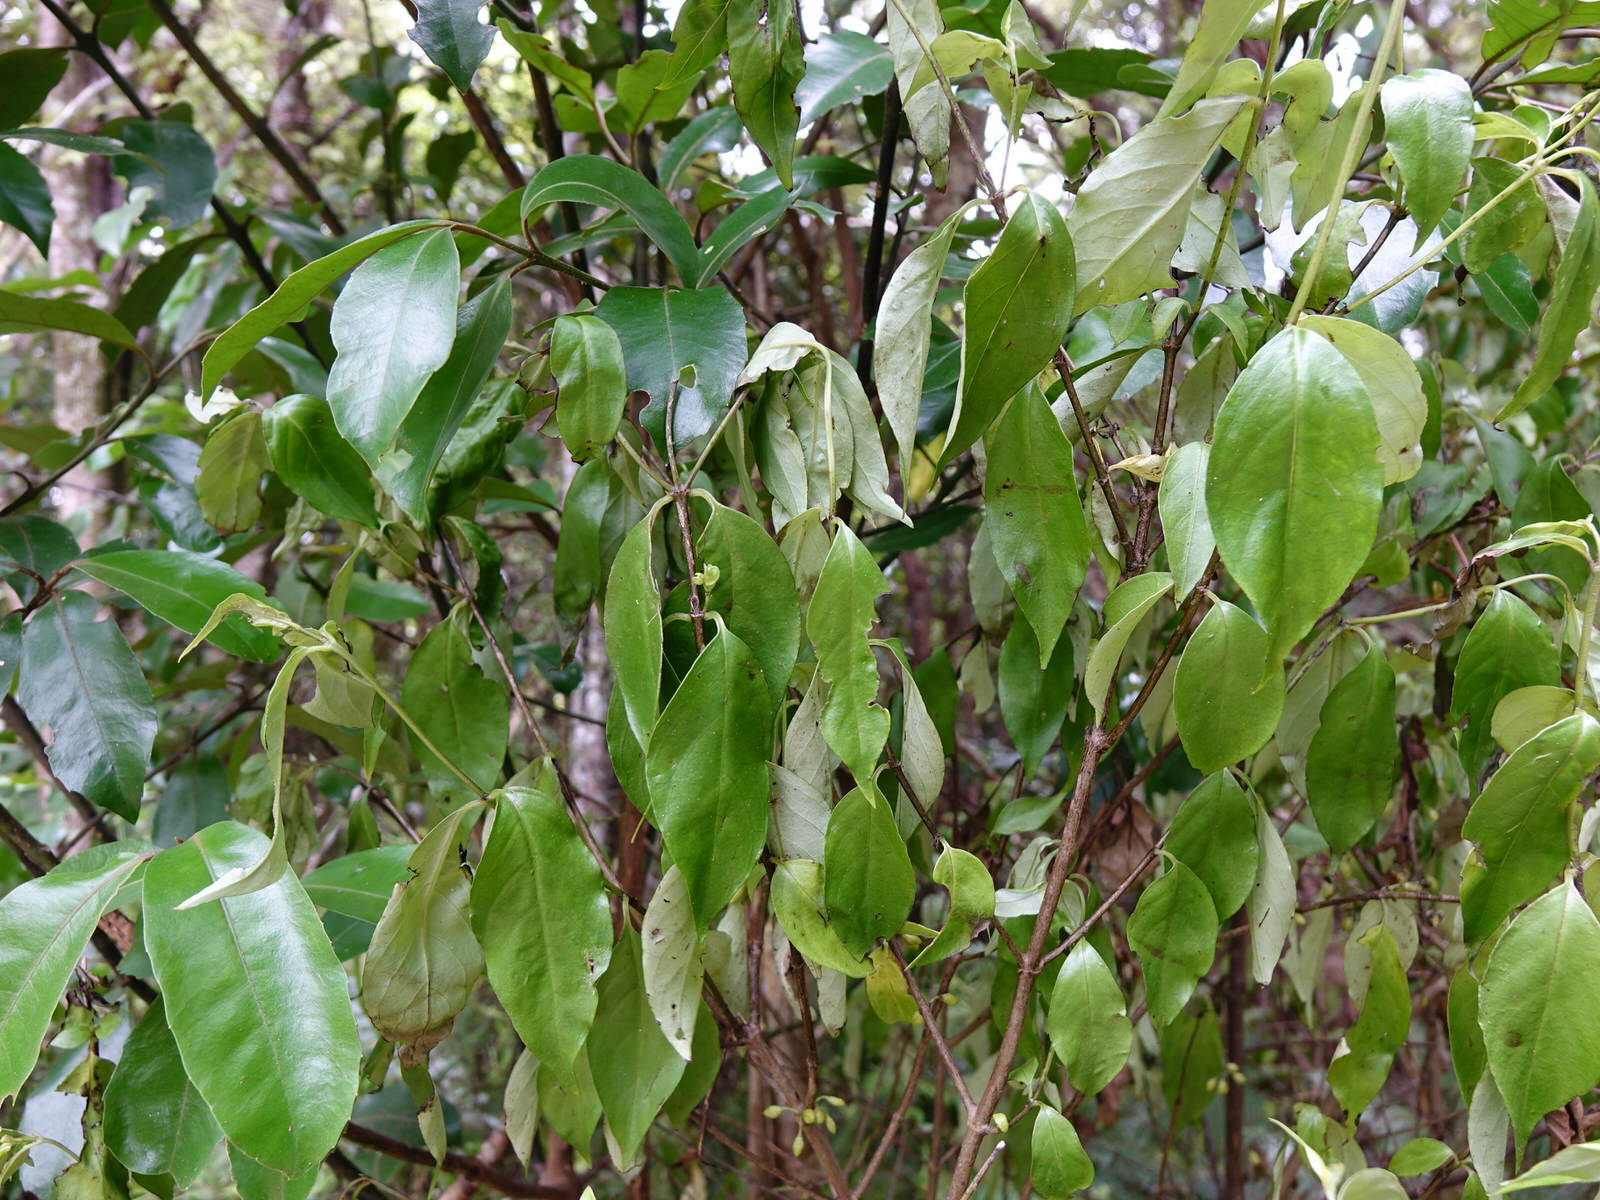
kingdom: Plantae
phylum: Tracheophyta
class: Magnoliopsida
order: Gentianales
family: Loganiaceae
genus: Geniostoma
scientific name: Geniostoma ligustrifolium
